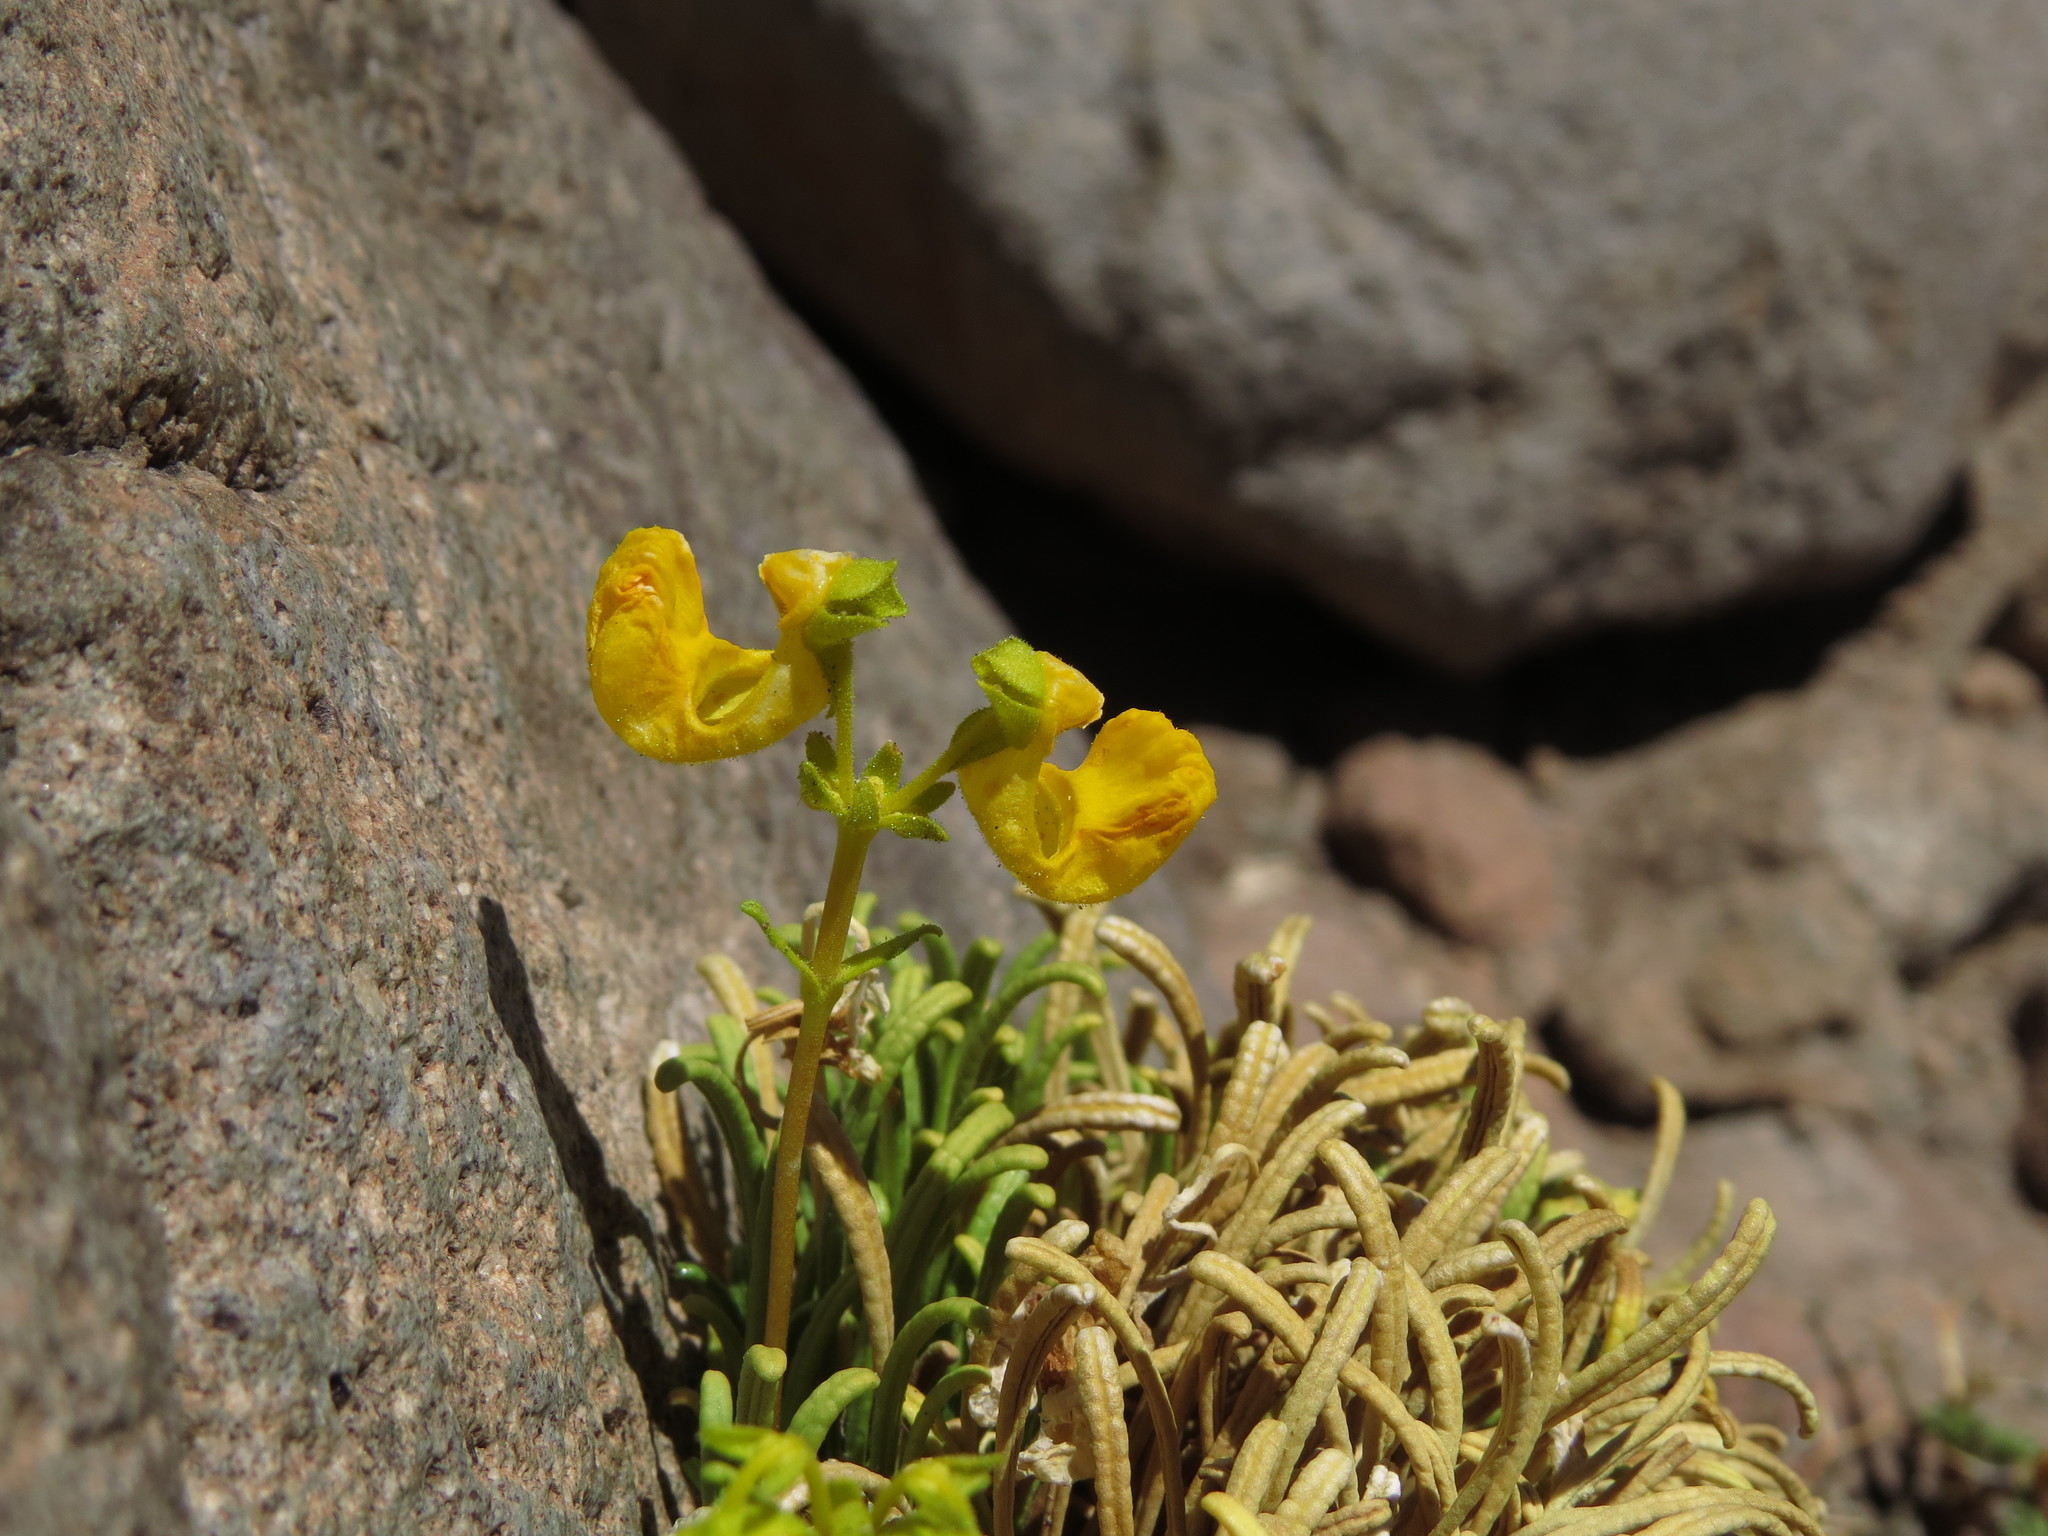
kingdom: Plantae
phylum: Tracheophyta
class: Magnoliopsida
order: Lamiales
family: Calceolariaceae
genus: Calceolaria
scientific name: Calceolaria pinifolia
